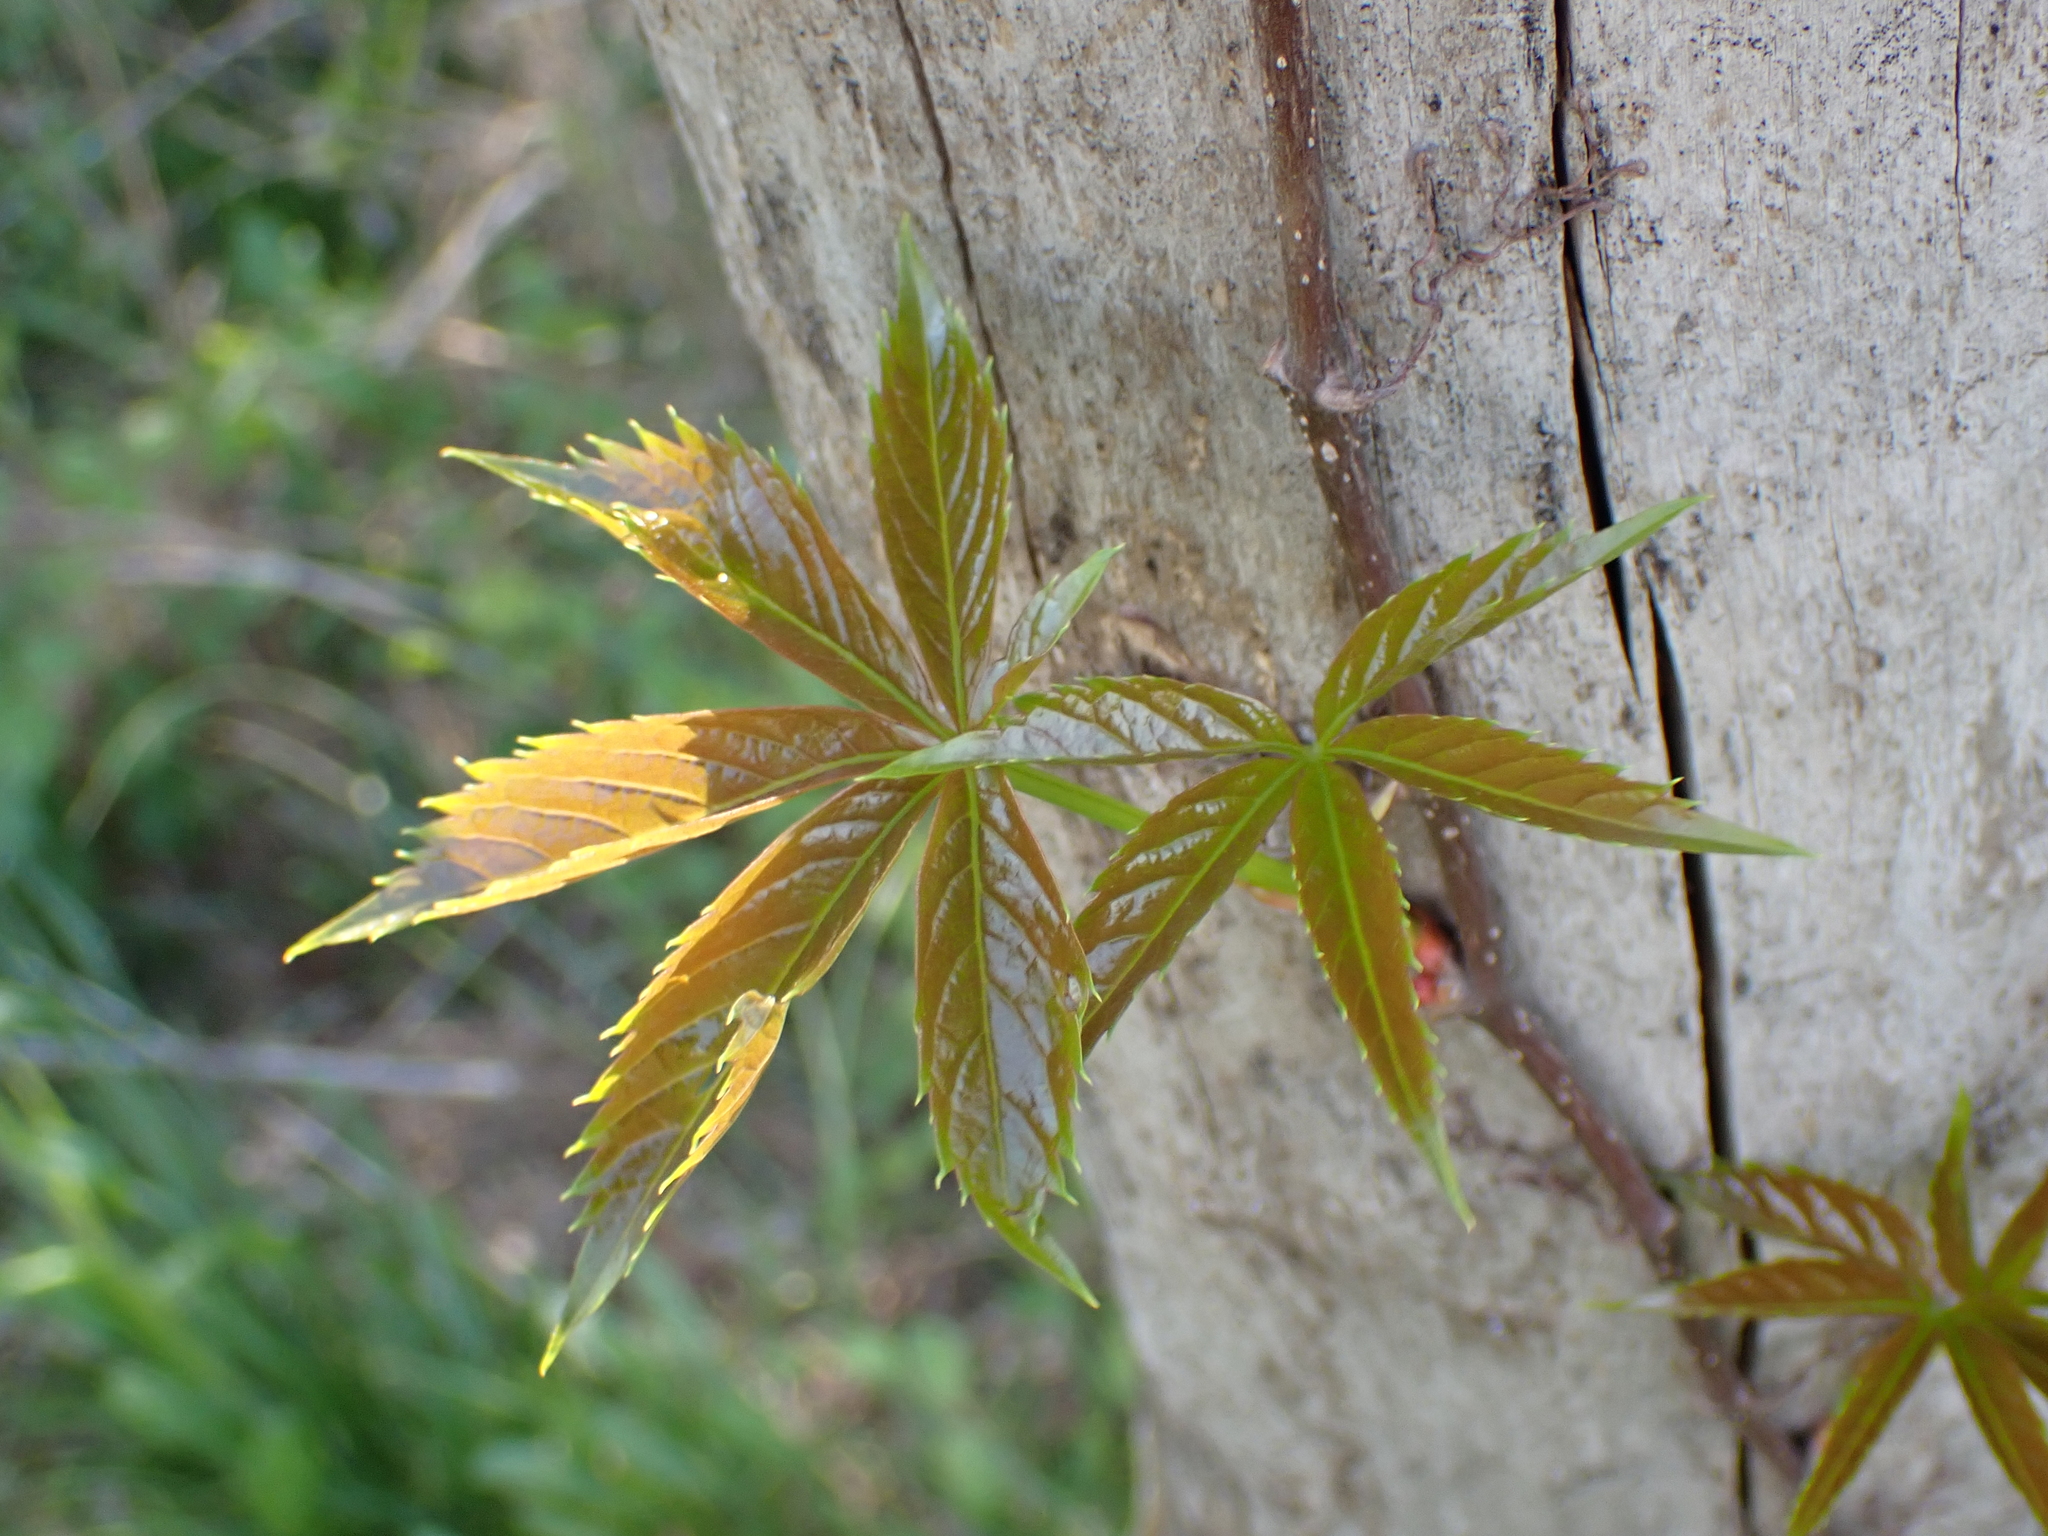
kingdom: Plantae
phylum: Tracheophyta
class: Magnoliopsida
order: Vitales
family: Vitaceae
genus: Parthenocissus
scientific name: Parthenocissus quinquefolia
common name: Virginia-creeper
